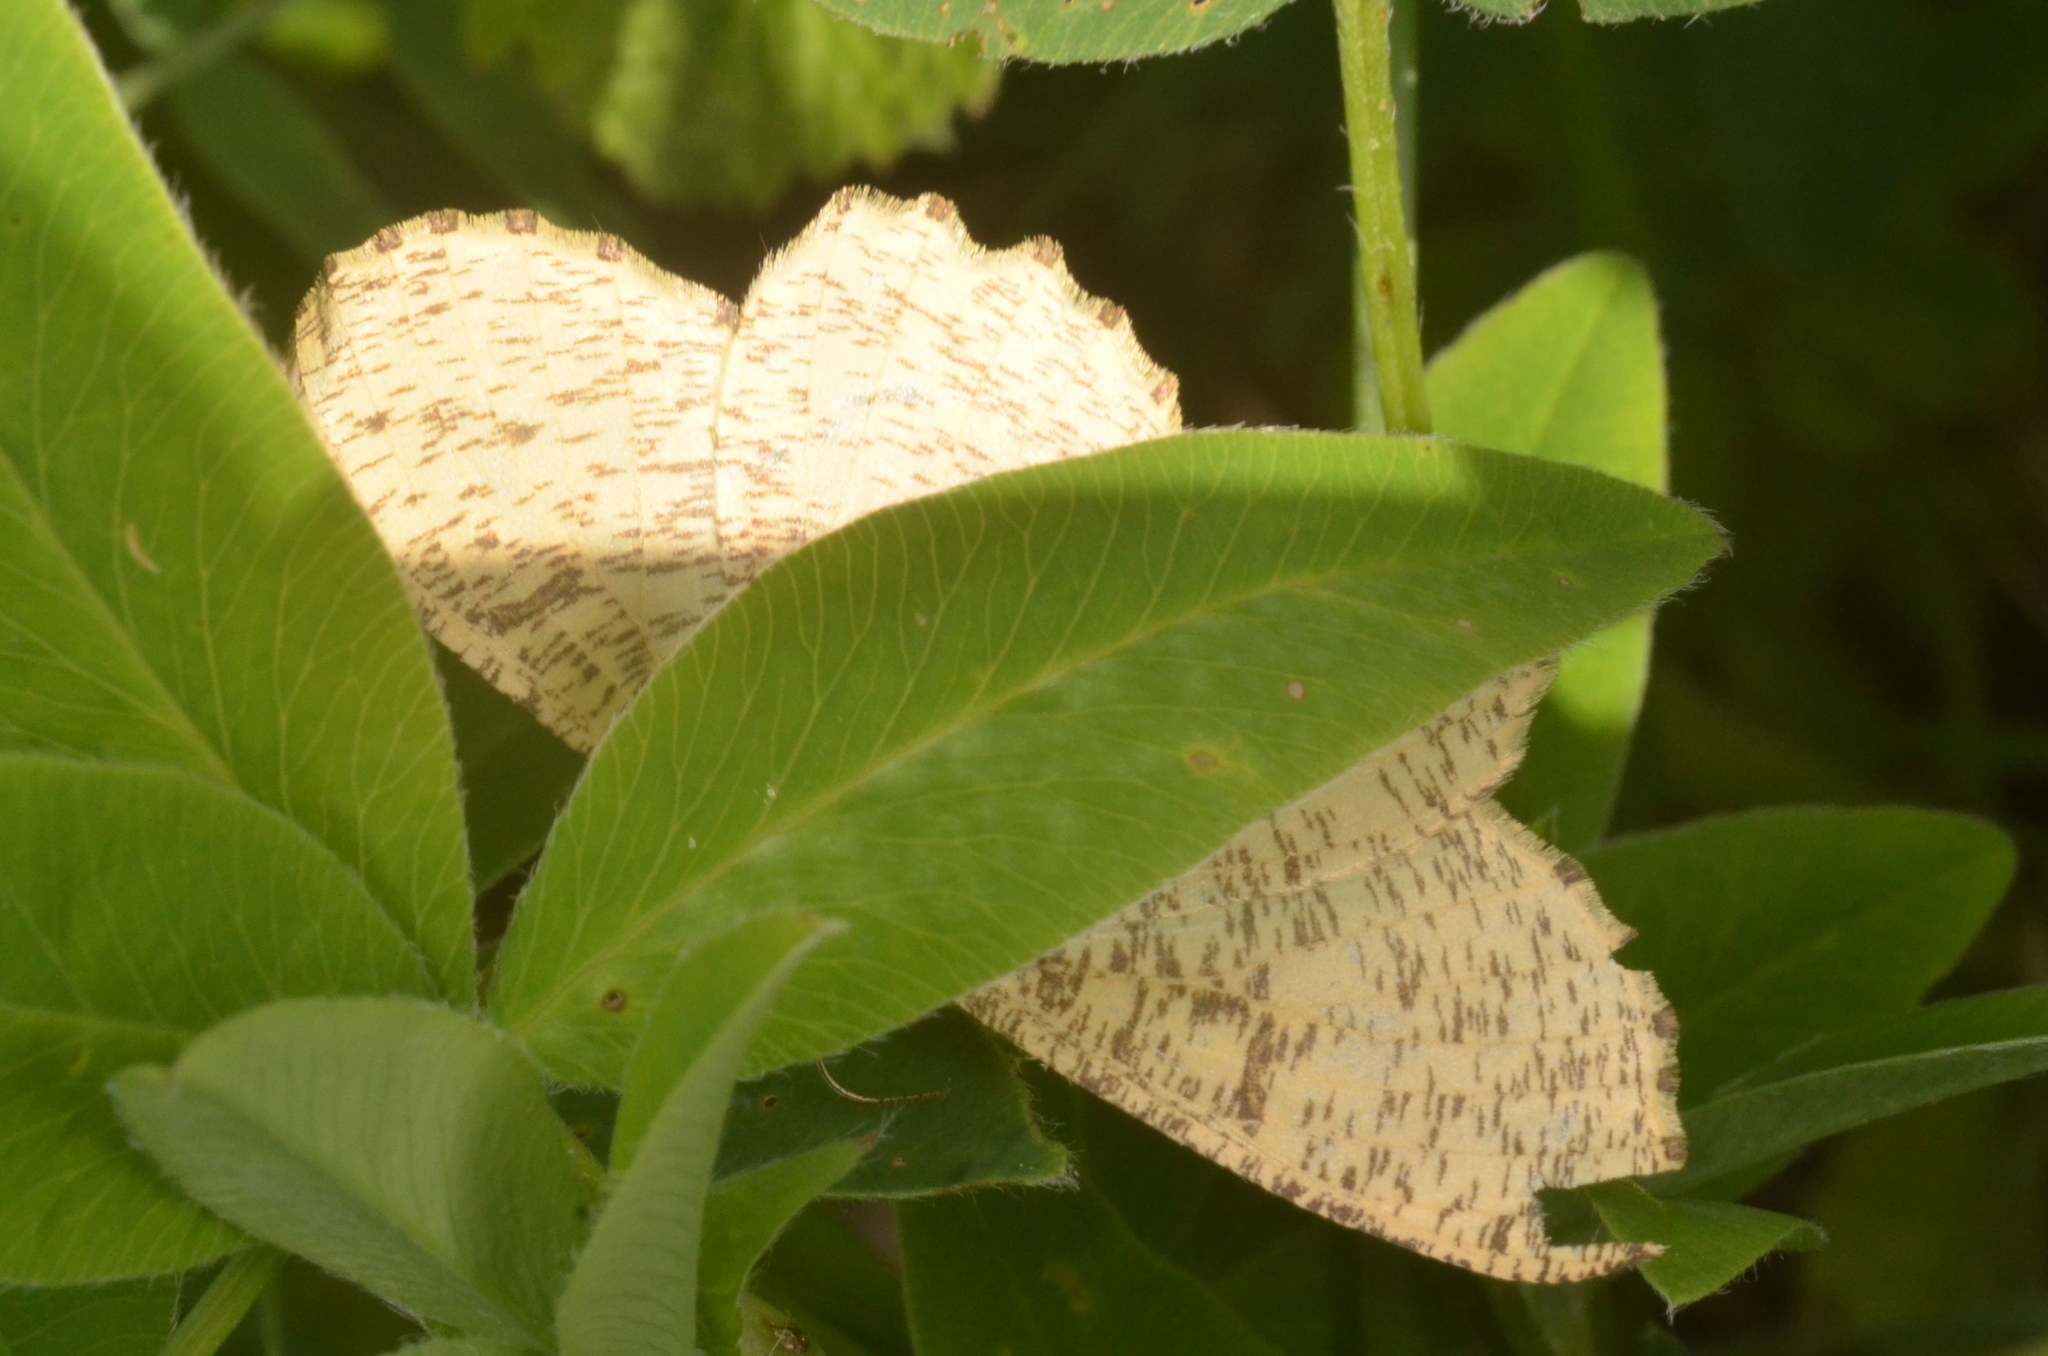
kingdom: Animalia
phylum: Arthropoda
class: Insecta
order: Lepidoptera
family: Geometridae
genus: Angerona
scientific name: Angerona prunaria
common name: Orange moth
